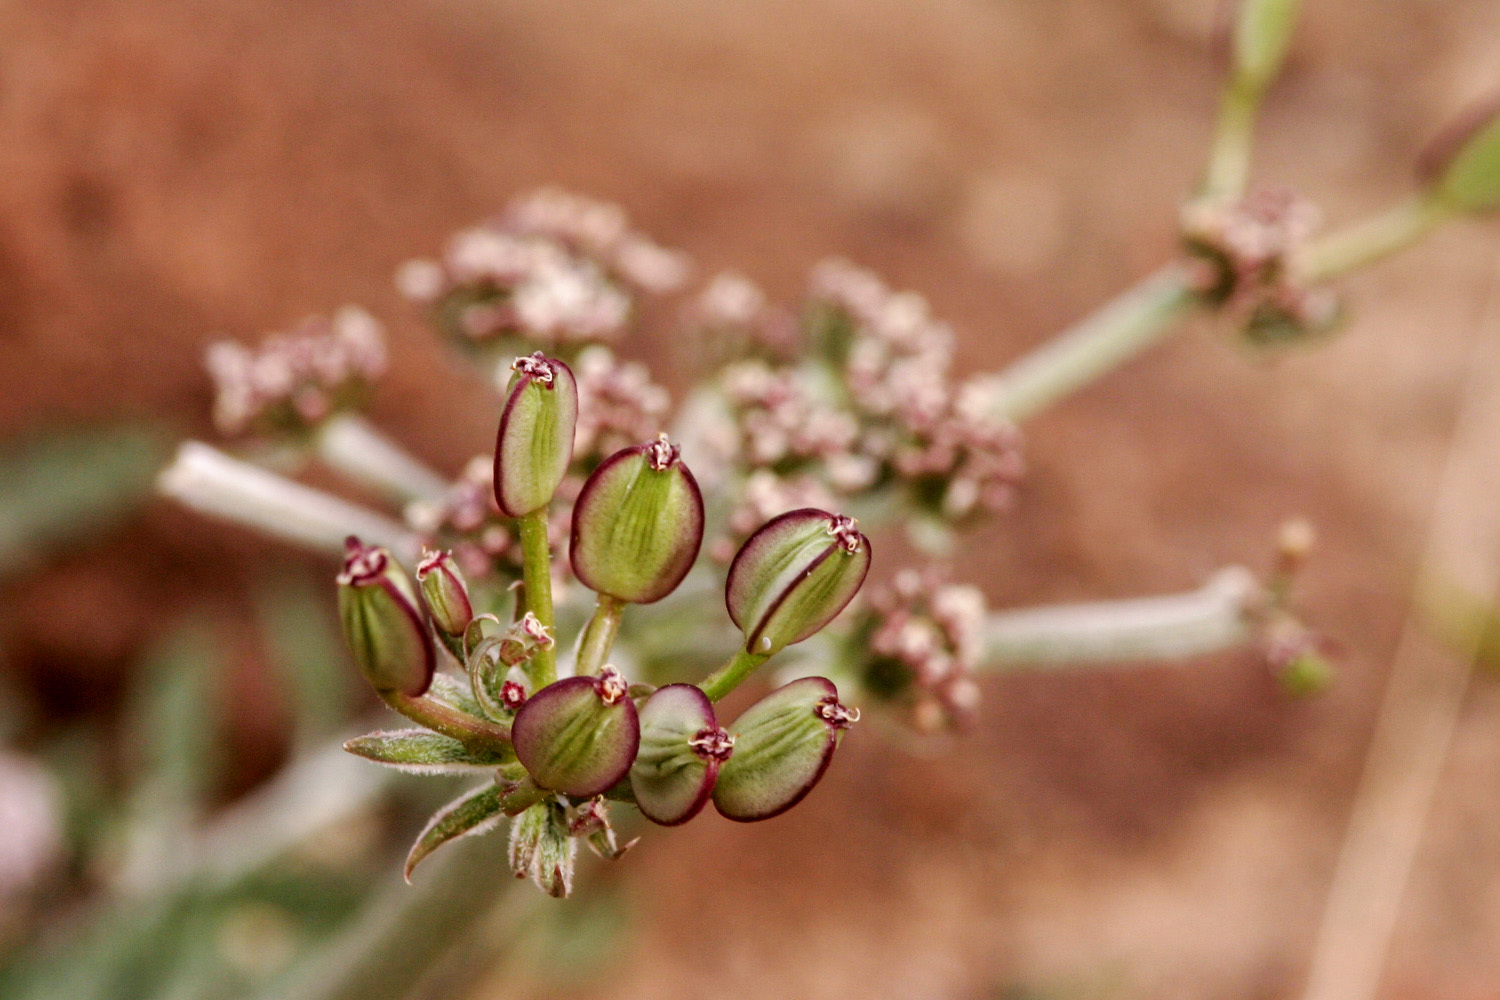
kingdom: Plantae
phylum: Tracheophyta
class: Magnoliopsida
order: Apiales
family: Apiaceae
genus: Lomatium
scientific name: Lomatium nevadense
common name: Nevada lomatium
